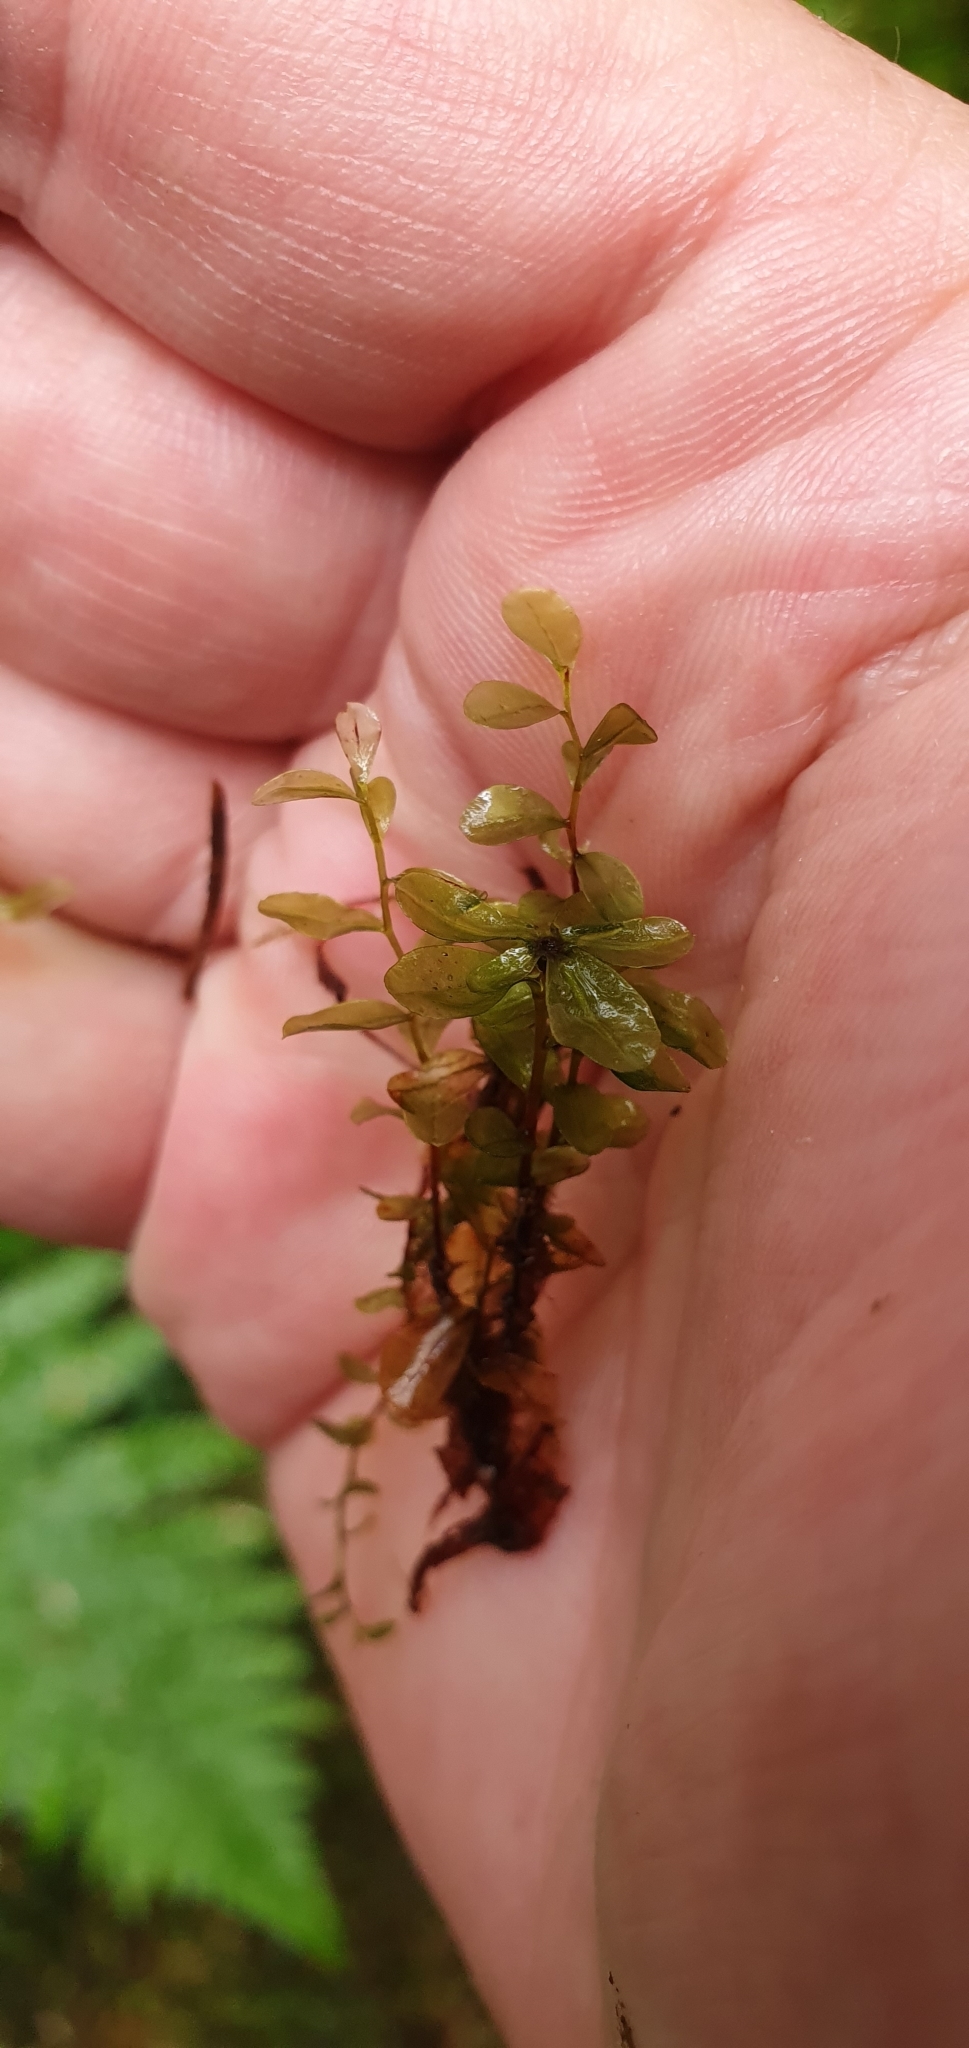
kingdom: Plantae
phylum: Bryophyta
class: Bryopsida
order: Bryales
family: Mniaceae
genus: Rhizomnium
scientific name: Rhizomnium punctatum
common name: Dotted leafy moss
